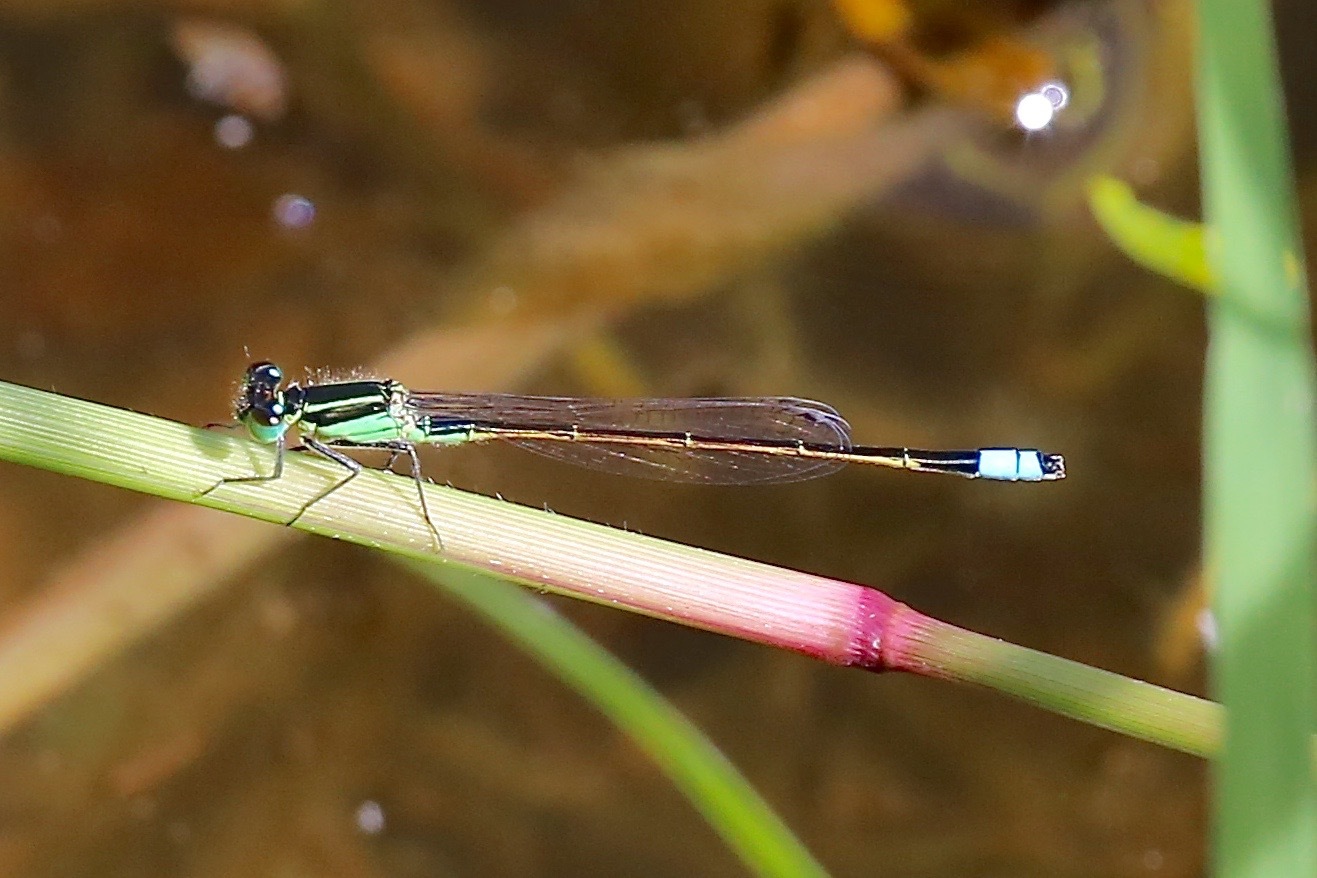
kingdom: Animalia
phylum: Arthropoda
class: Insecta
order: Odonata
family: Coenagrionidae
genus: Ischnura
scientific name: Ischnura ramburii
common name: Rambur's forktail
